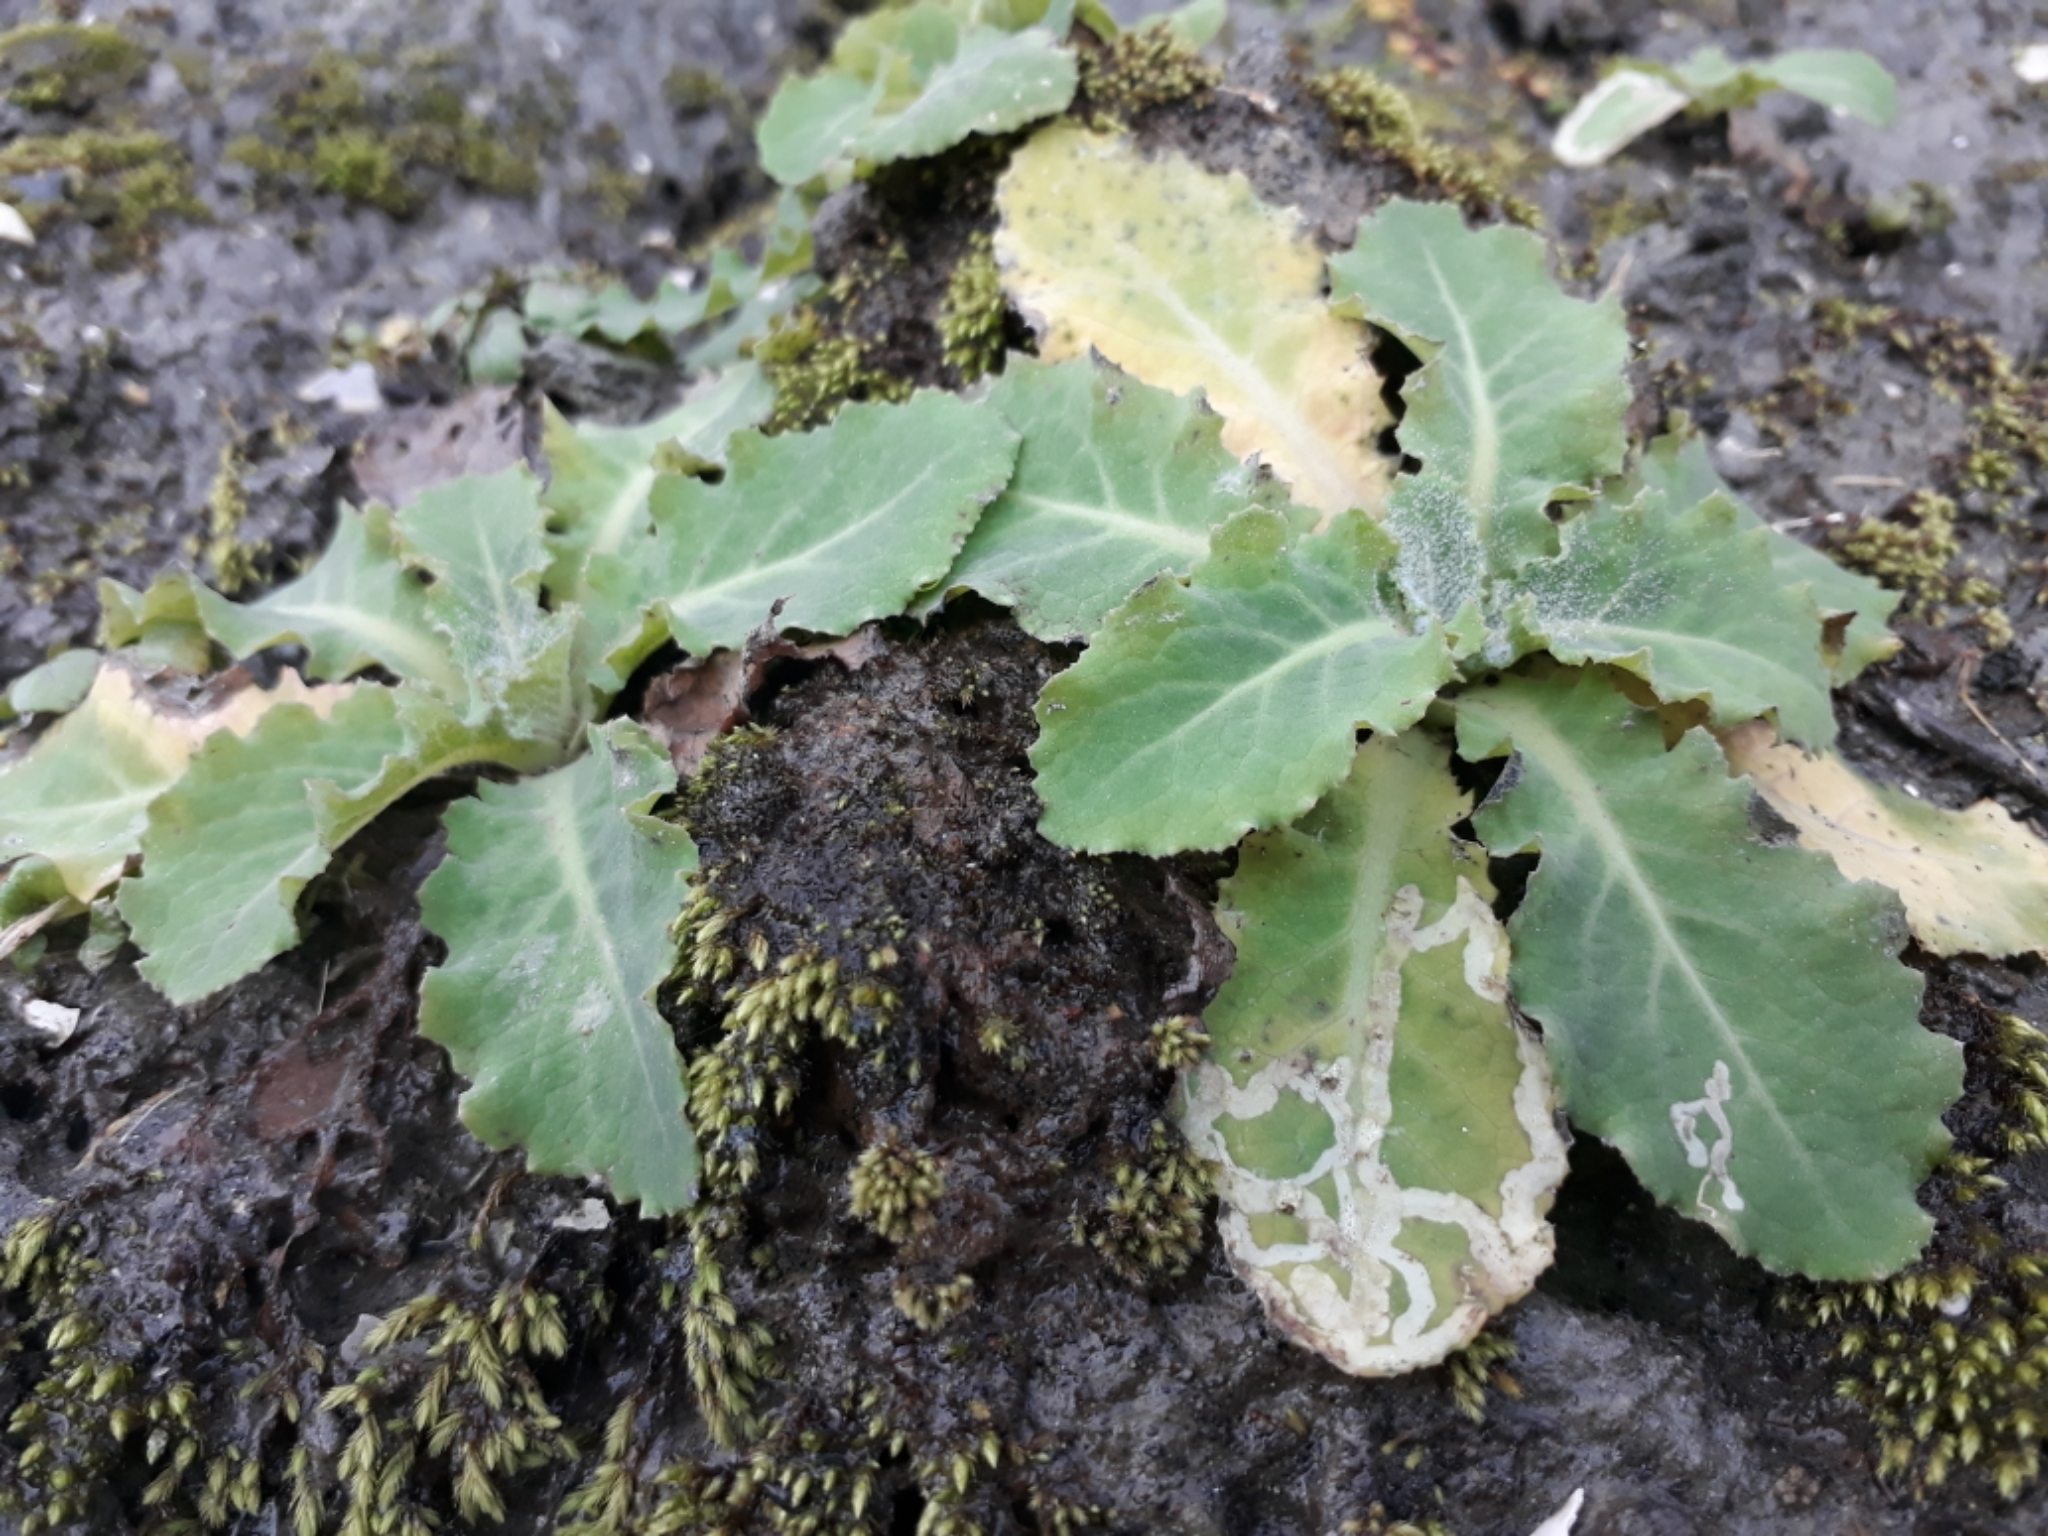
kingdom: Plantae
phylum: Tracheophyta
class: Magnoliopsida
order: Asterales
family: Asteraceae
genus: Sonchus
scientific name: Sonchus kirkii
